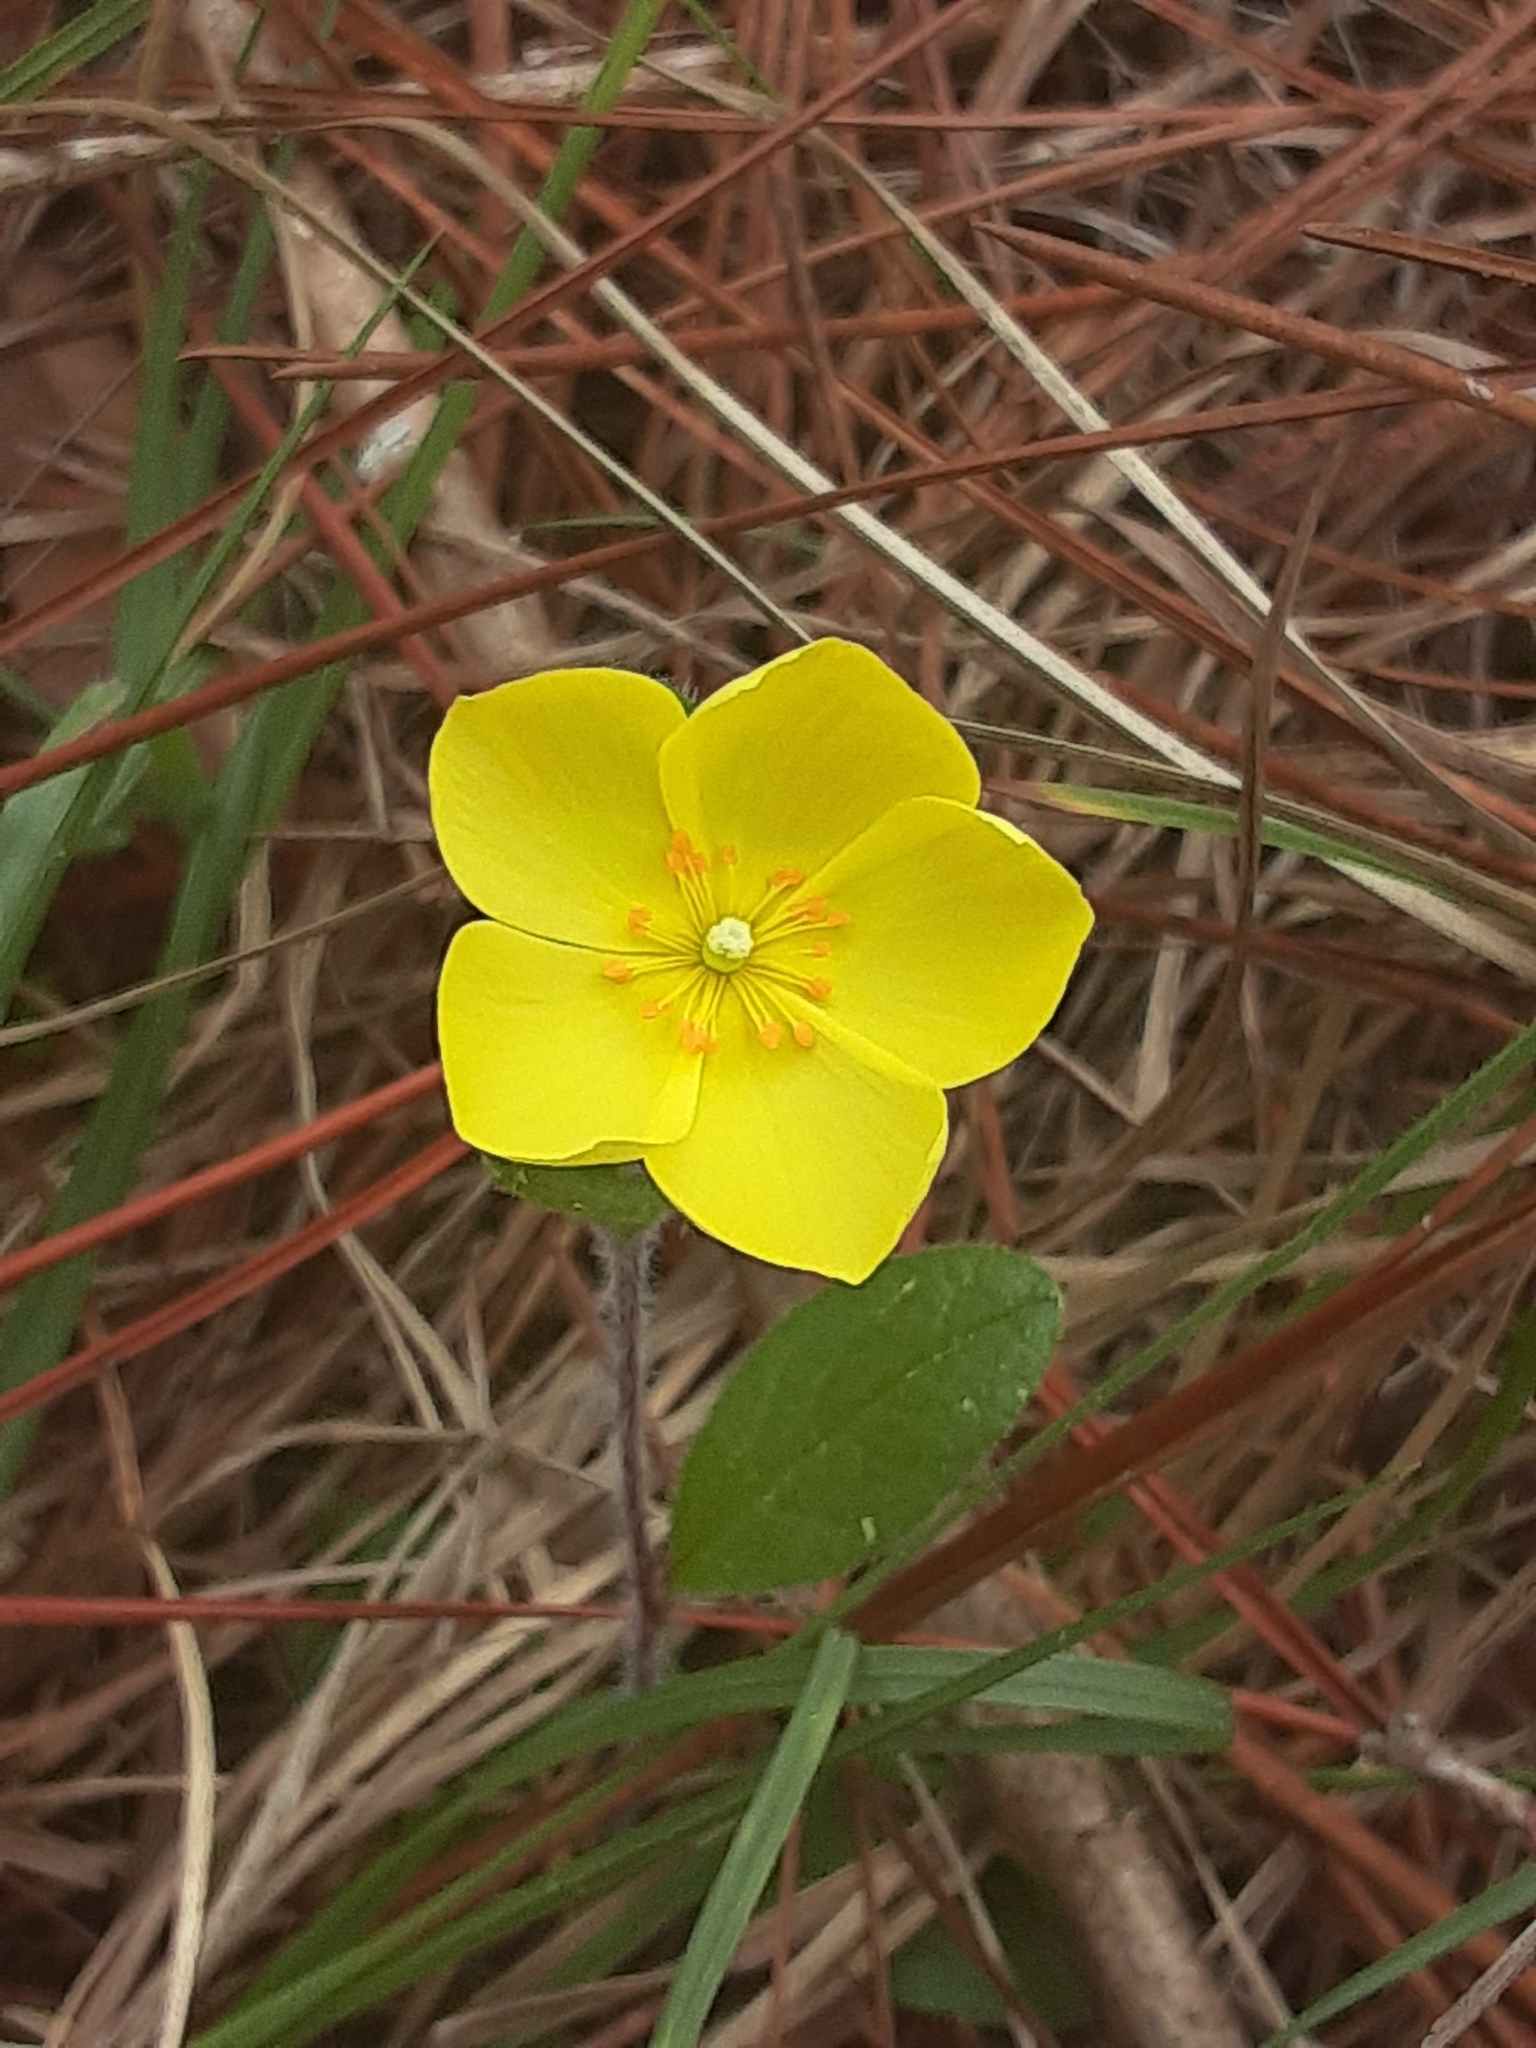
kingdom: Plantae
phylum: Tracheophyta
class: Magnoliopsida
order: Malvales
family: Cistaceae
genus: Crocanthemum
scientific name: Crocanthemum carolinianum
